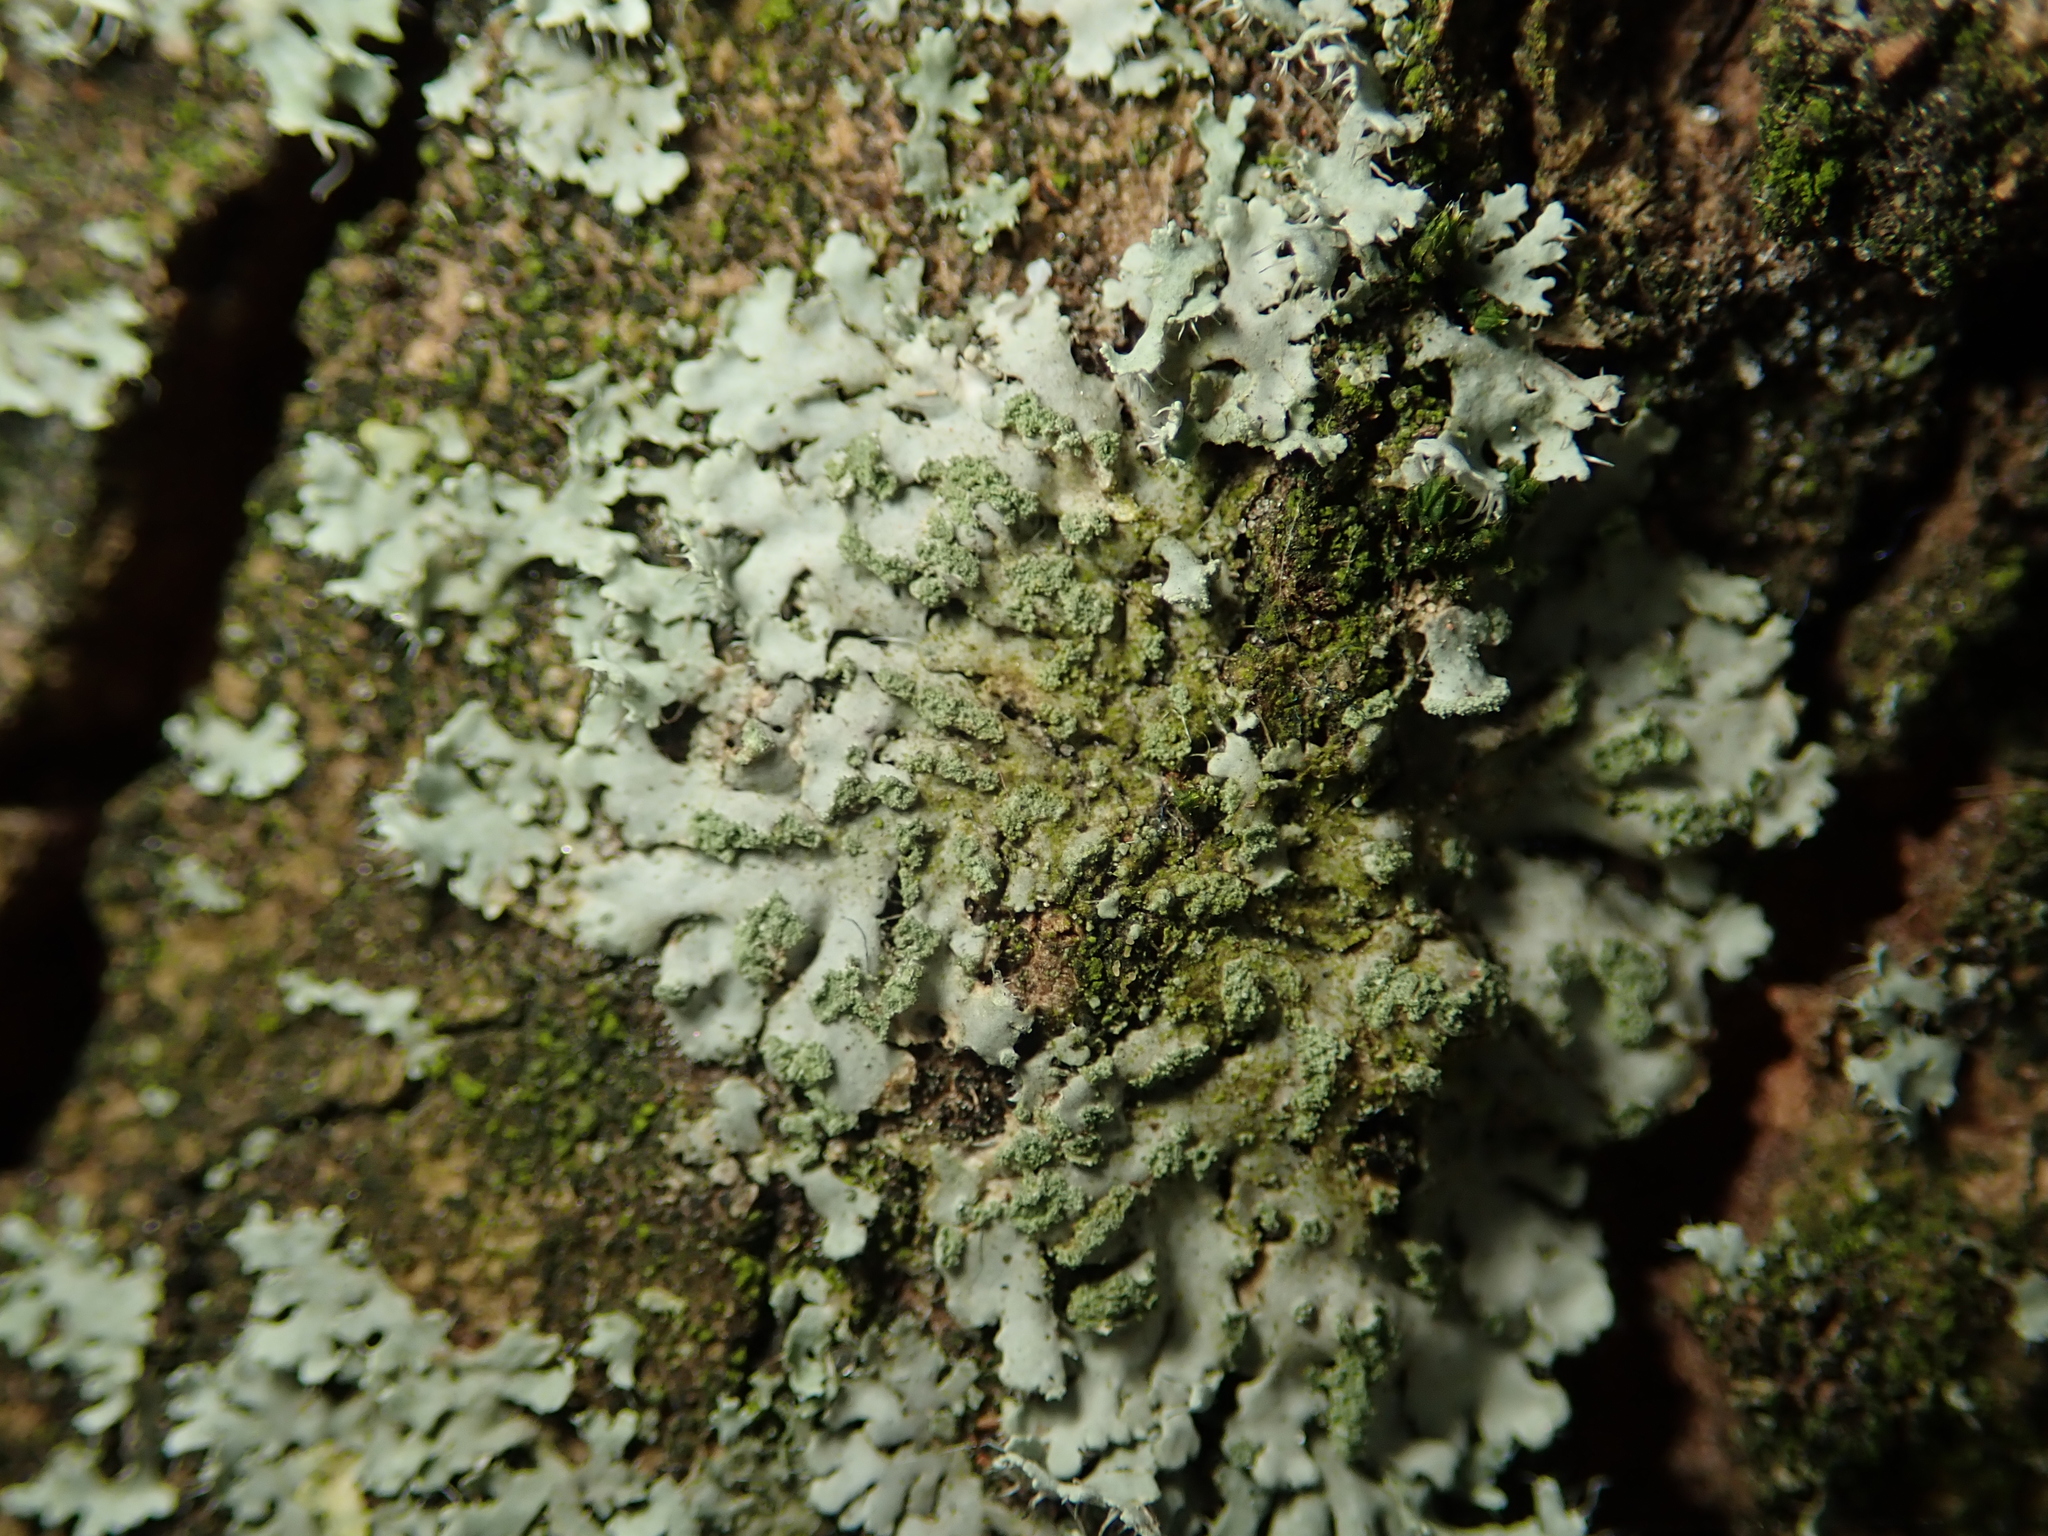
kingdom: Fungi
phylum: Ascomycota
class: Lecanoromycetes
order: Caliciales
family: Physciaceae
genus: Phaeophyscia
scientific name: Phaeophyscia orbicularis
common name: Mealy shadow lichen
